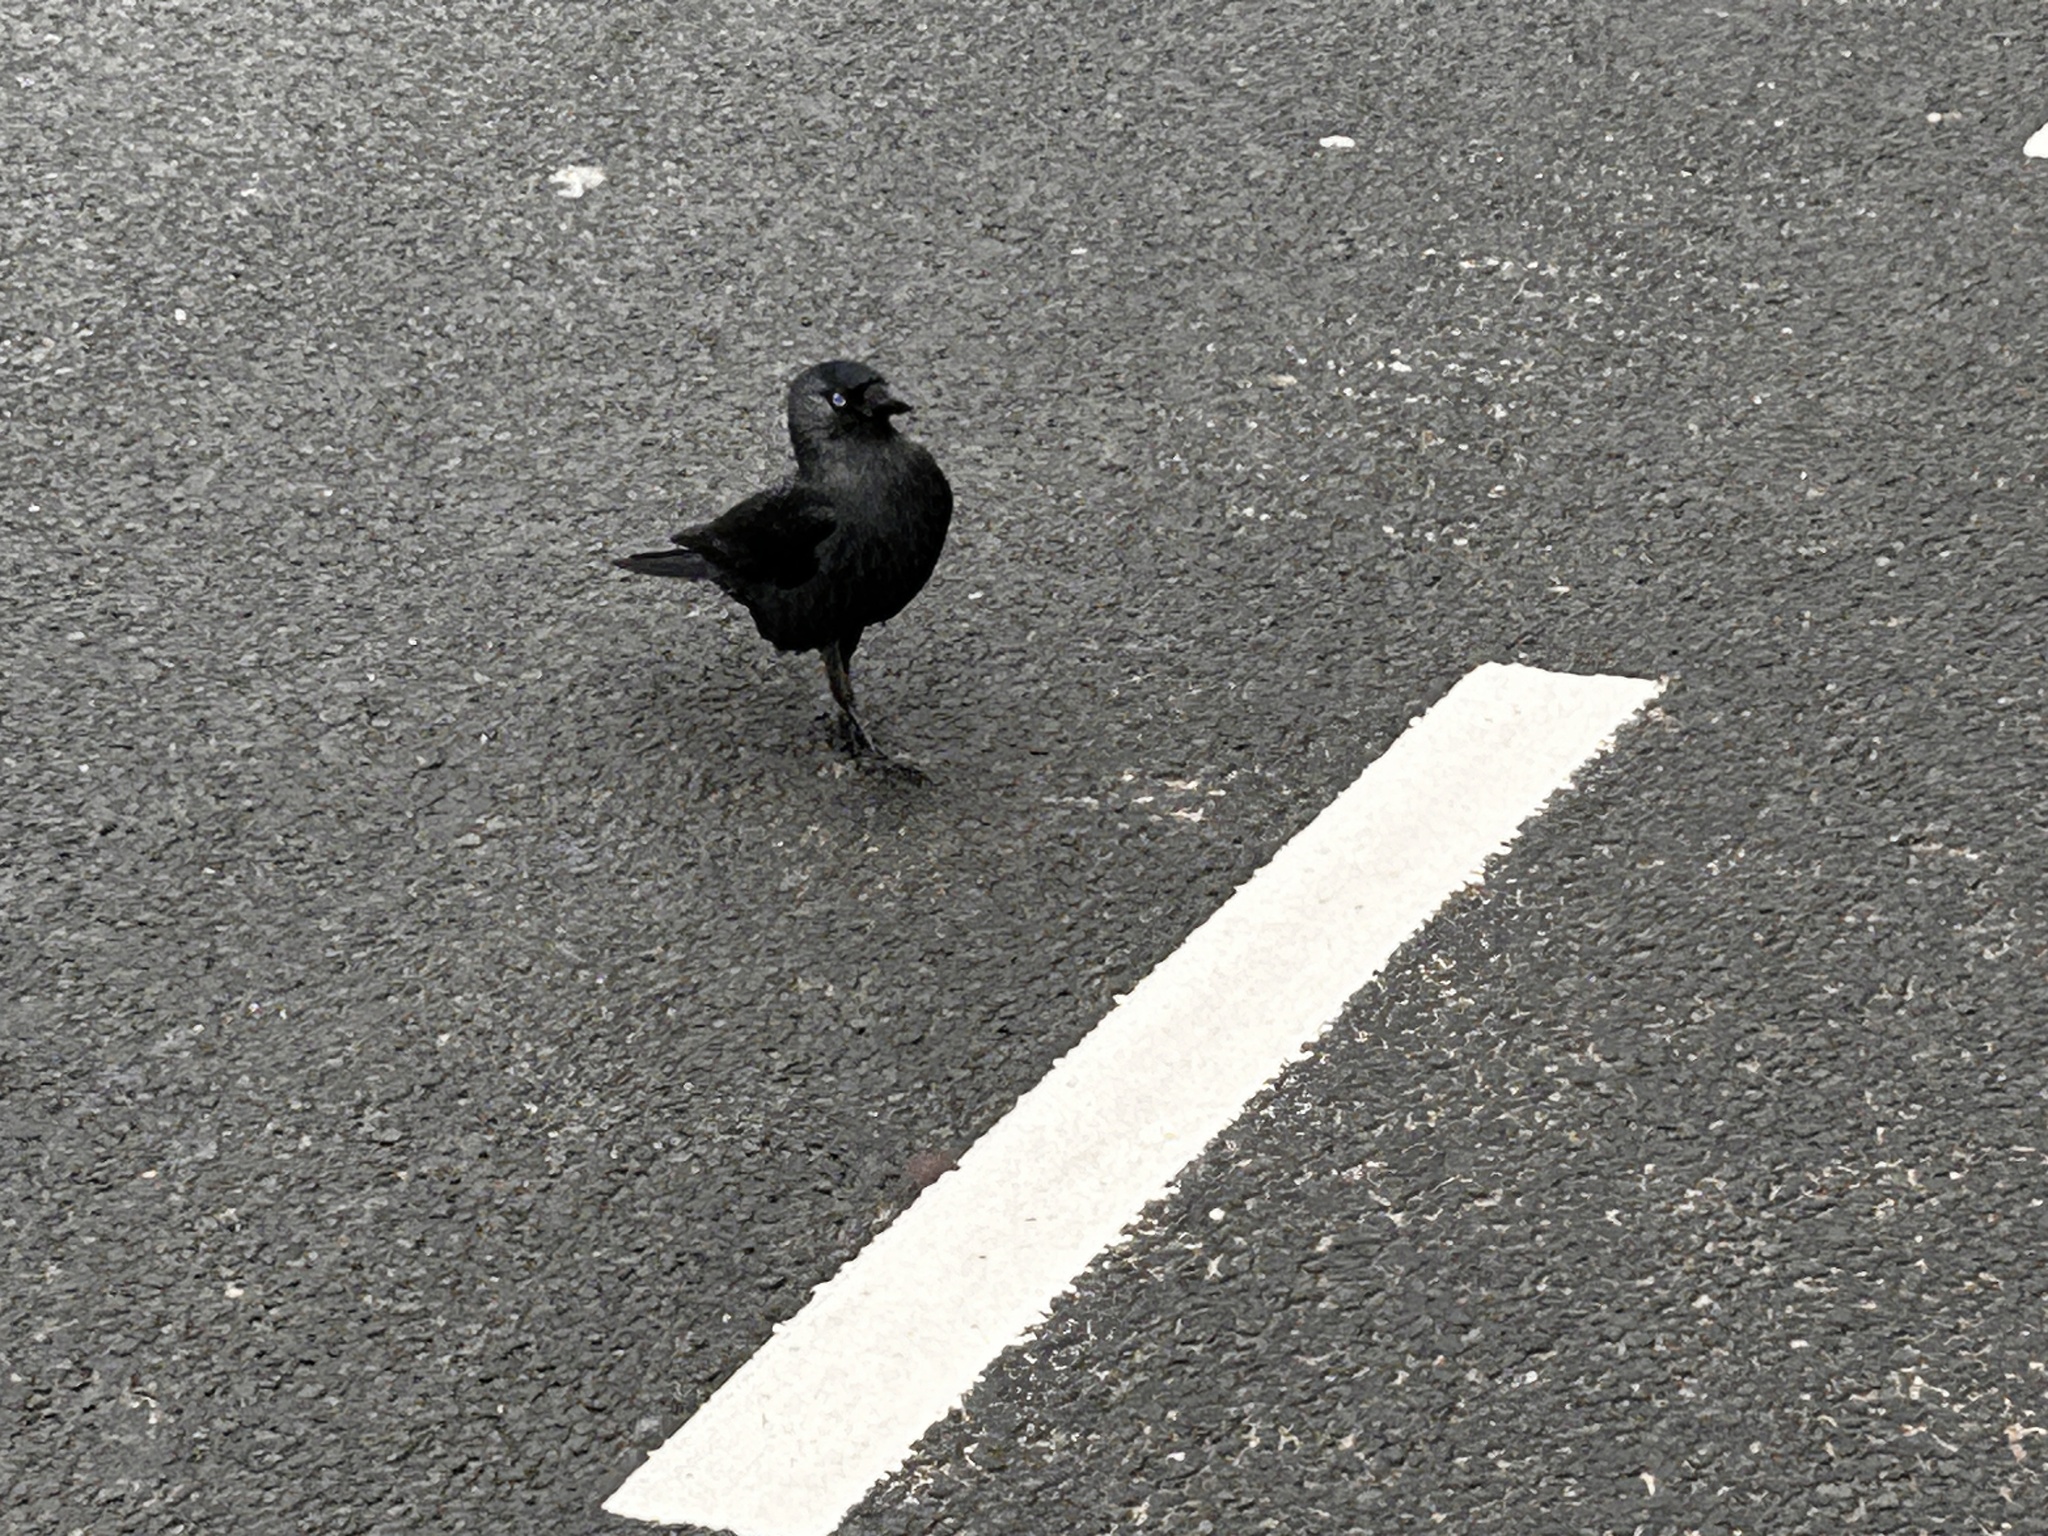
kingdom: Animalia
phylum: Chordata
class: Aves
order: Passeriformes
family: Corvidae
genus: Coloeus
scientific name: Coloeus monedula
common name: Western jackdaw
